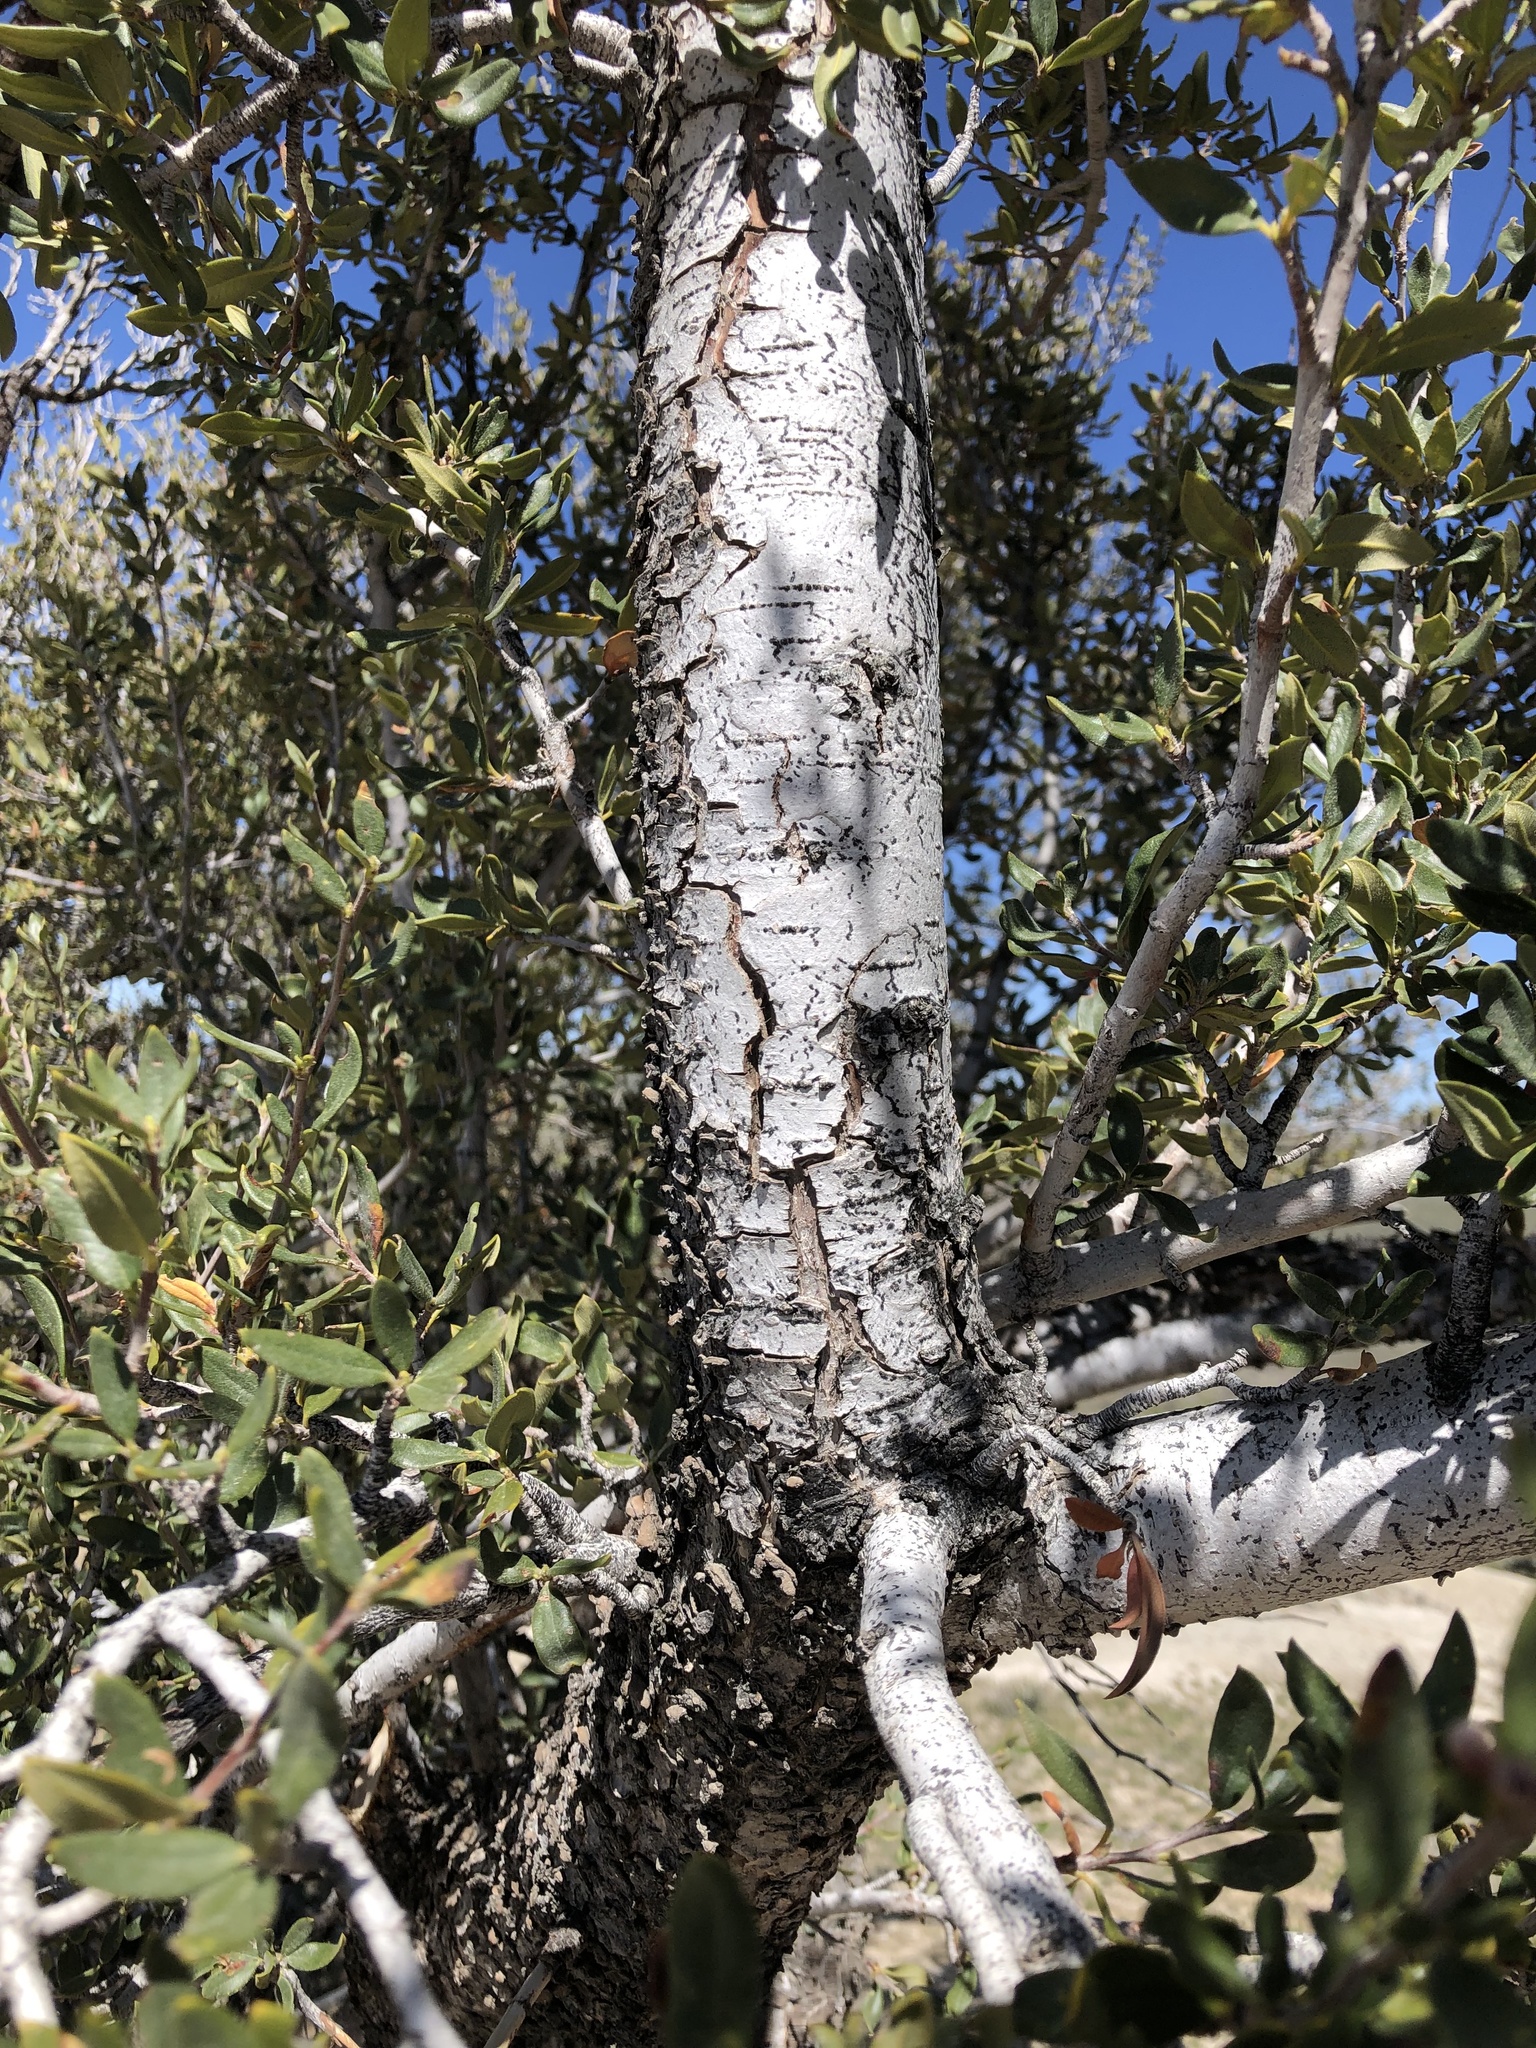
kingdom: Plantae
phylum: Tracheophyta
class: Magnoliopsida
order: Rosales
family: Rosaceae
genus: Cercocarpus
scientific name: Cercocarpus ledifolius
